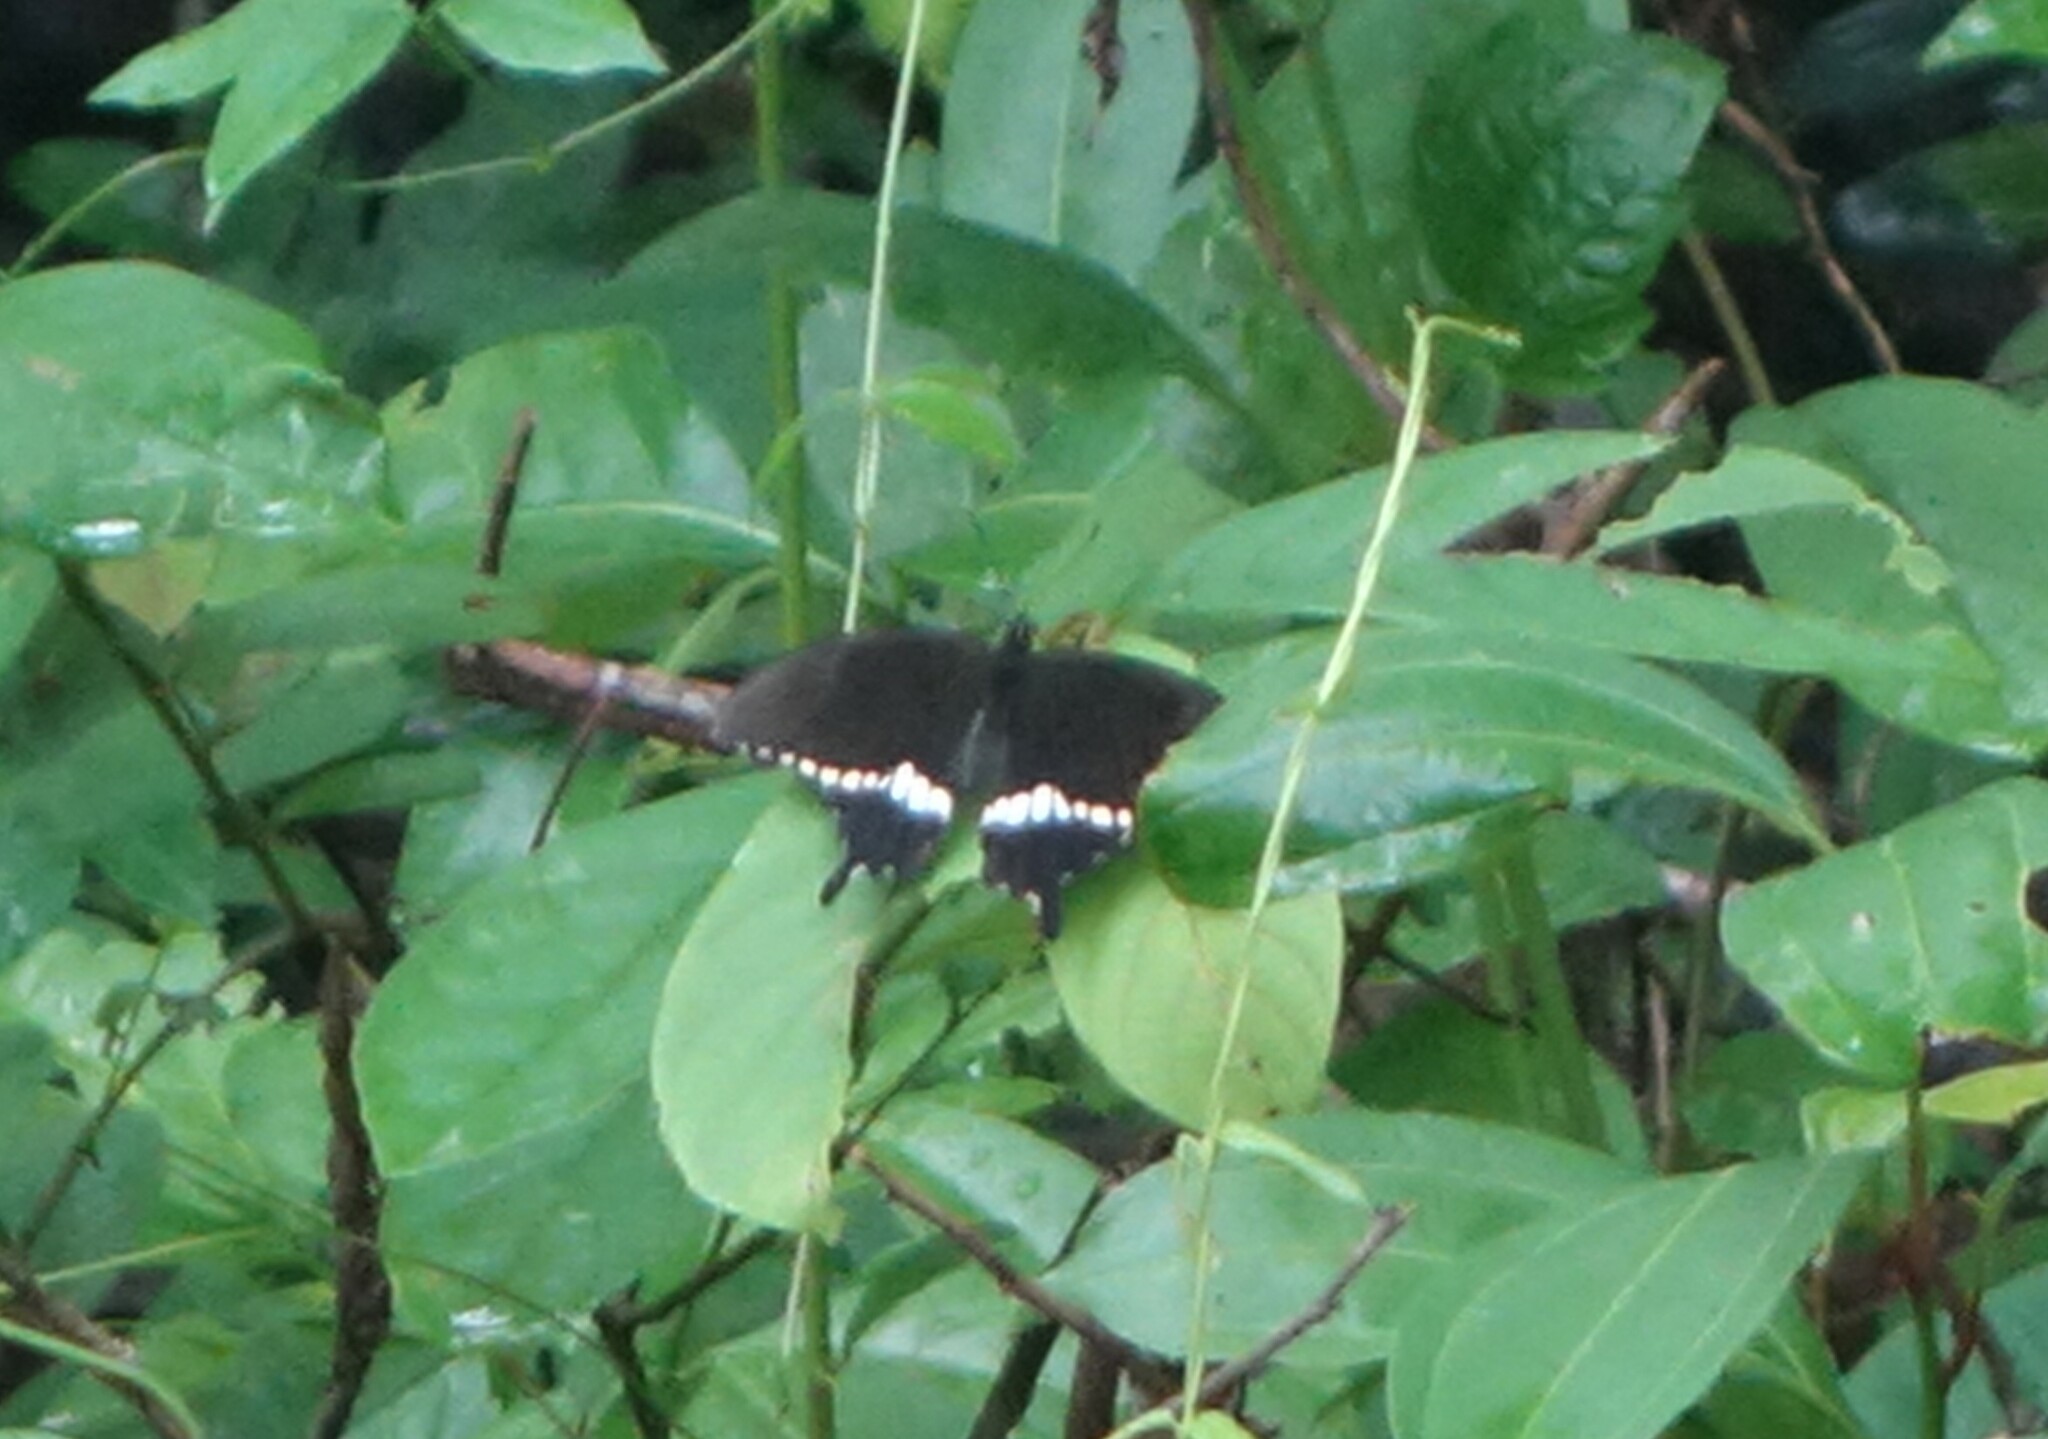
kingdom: Animalia
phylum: Arthropoda
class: Insecta
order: Lepidoptera
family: Papilionidae
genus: Papilio
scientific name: Papilio polytes
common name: Common mormon
